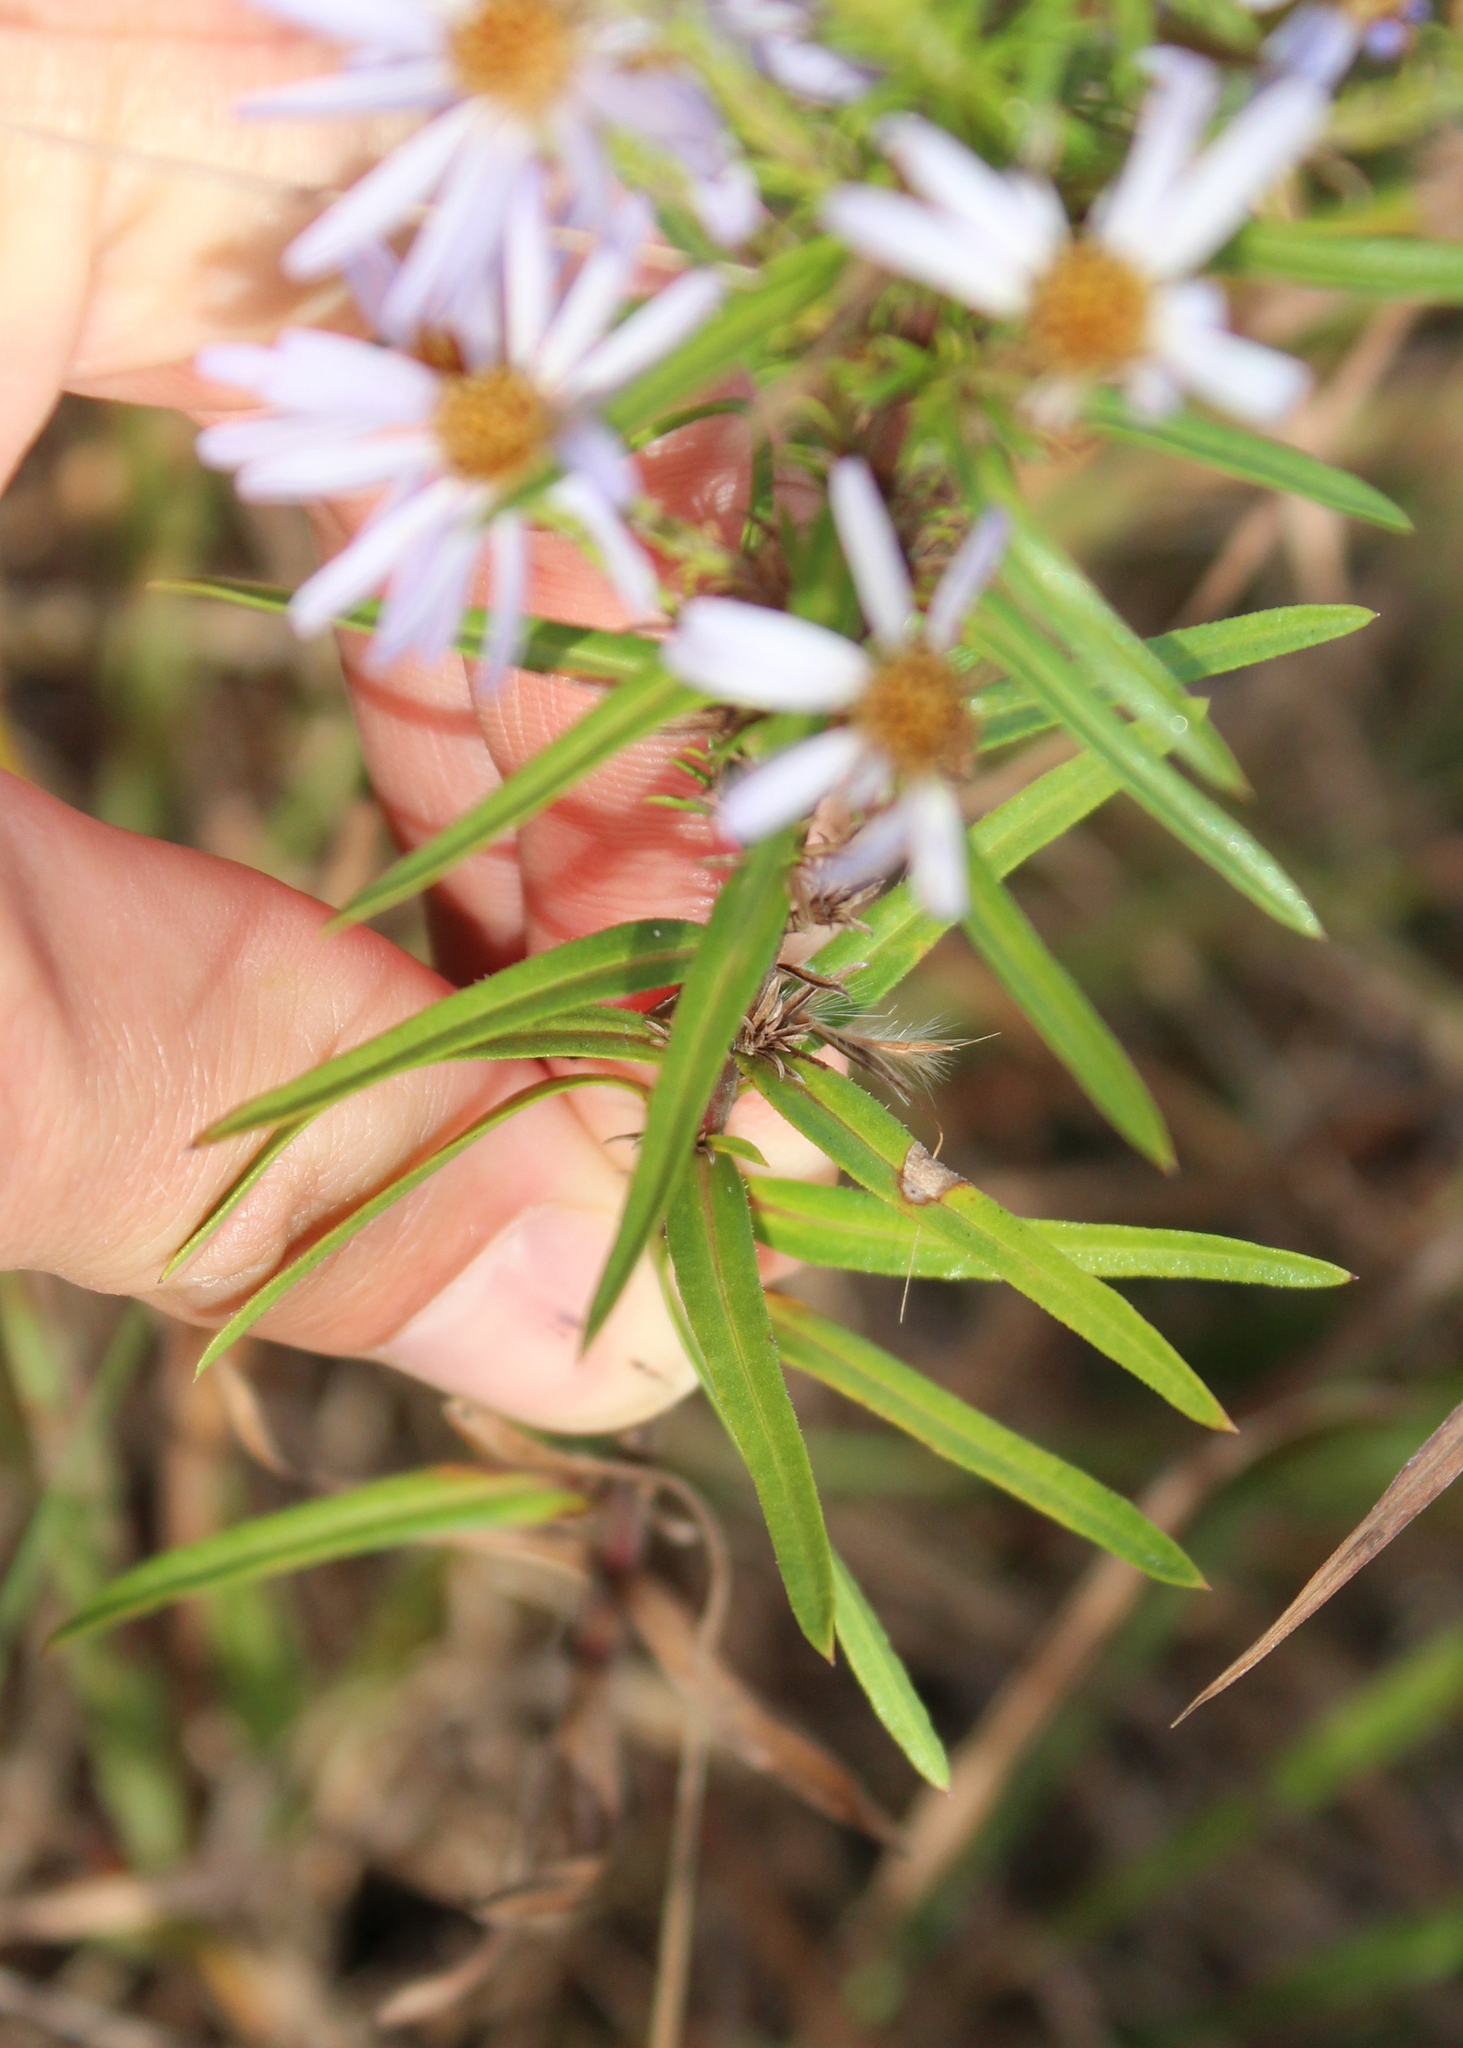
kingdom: Plantae
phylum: Tracheophyta
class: Magnoliopsida
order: Asterales
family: Asteraceae
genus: Ionactis
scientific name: Ionactis linariifolia
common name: Flax-leaf aster
